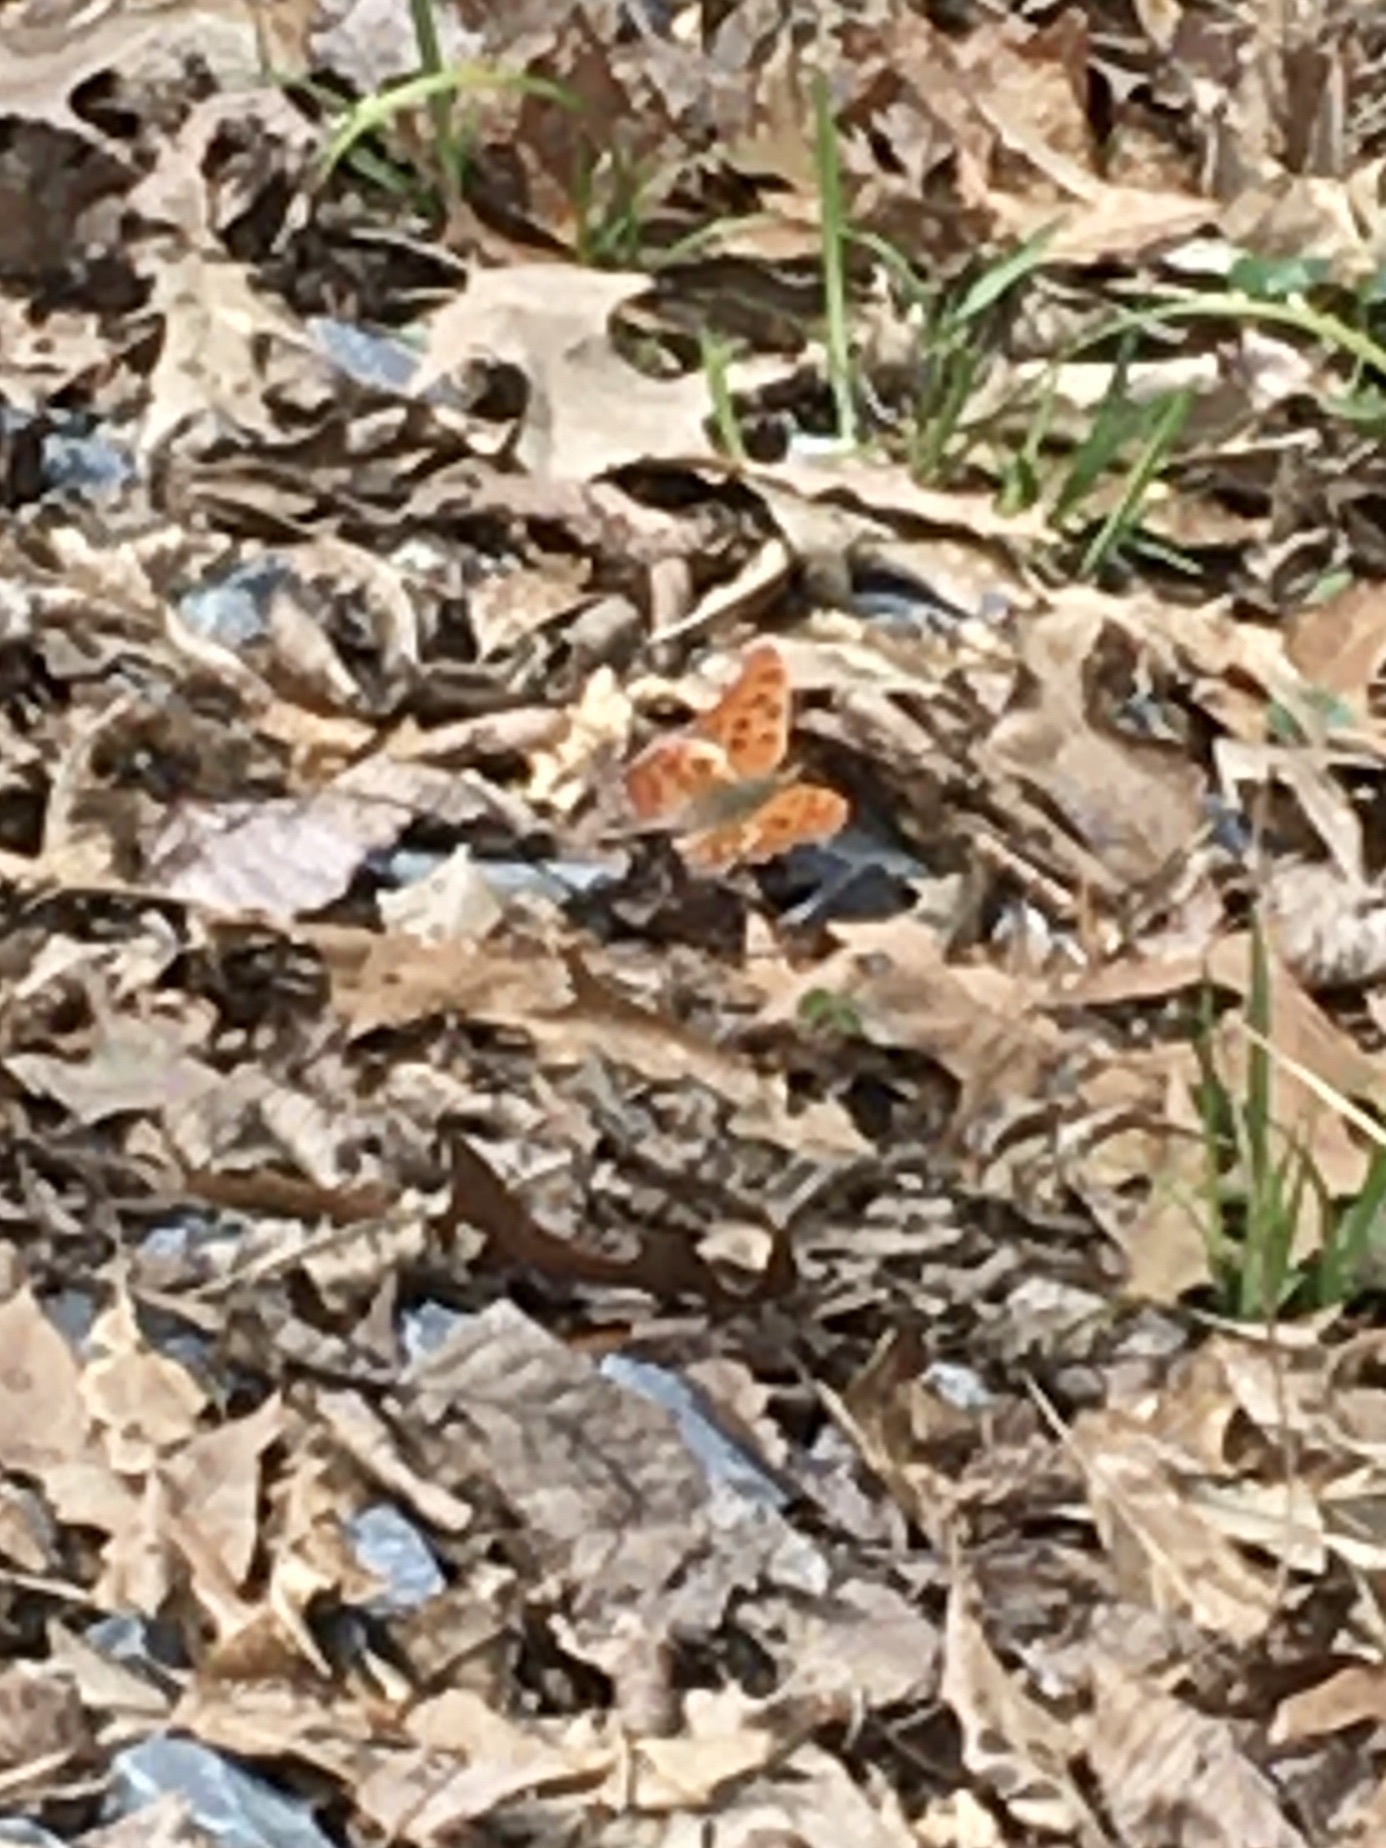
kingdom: Animalia
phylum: Arthropoda
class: Insecta
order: Lepidoptera
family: Nymphalidae
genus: Polygonia
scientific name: Polygonia interrogationis
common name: Question mark
